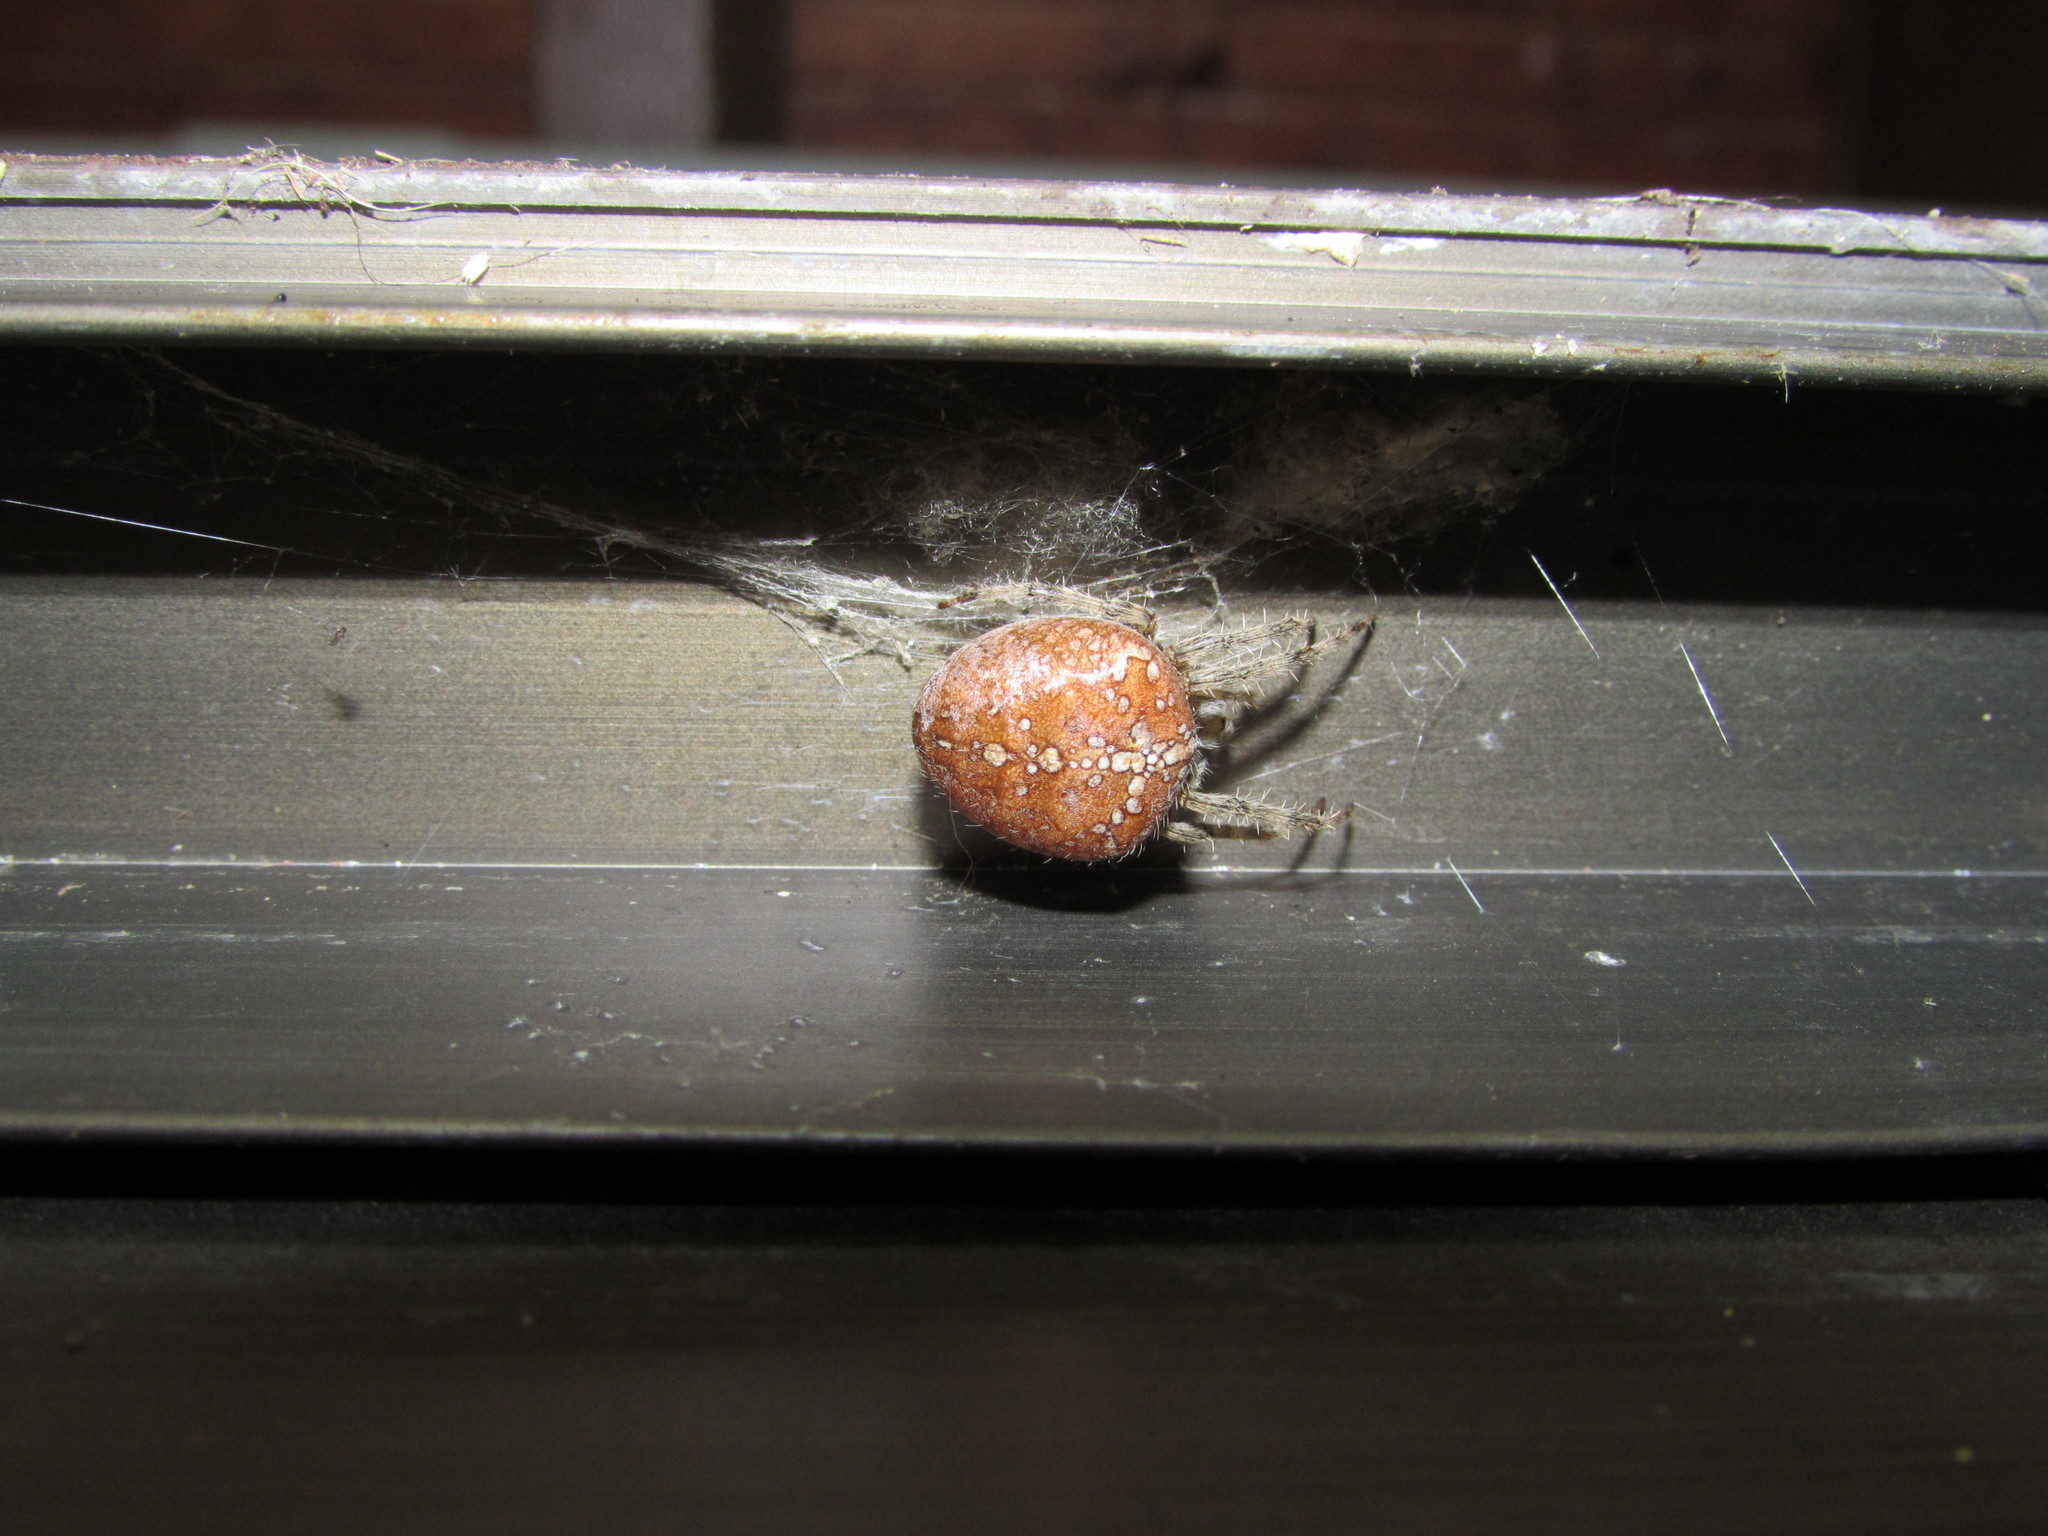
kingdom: Animalia
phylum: Arthropoda
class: Arachnida
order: Araneae
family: Araneidae
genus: Araneus
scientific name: Araneus diadematus
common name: Cross orbweaver
